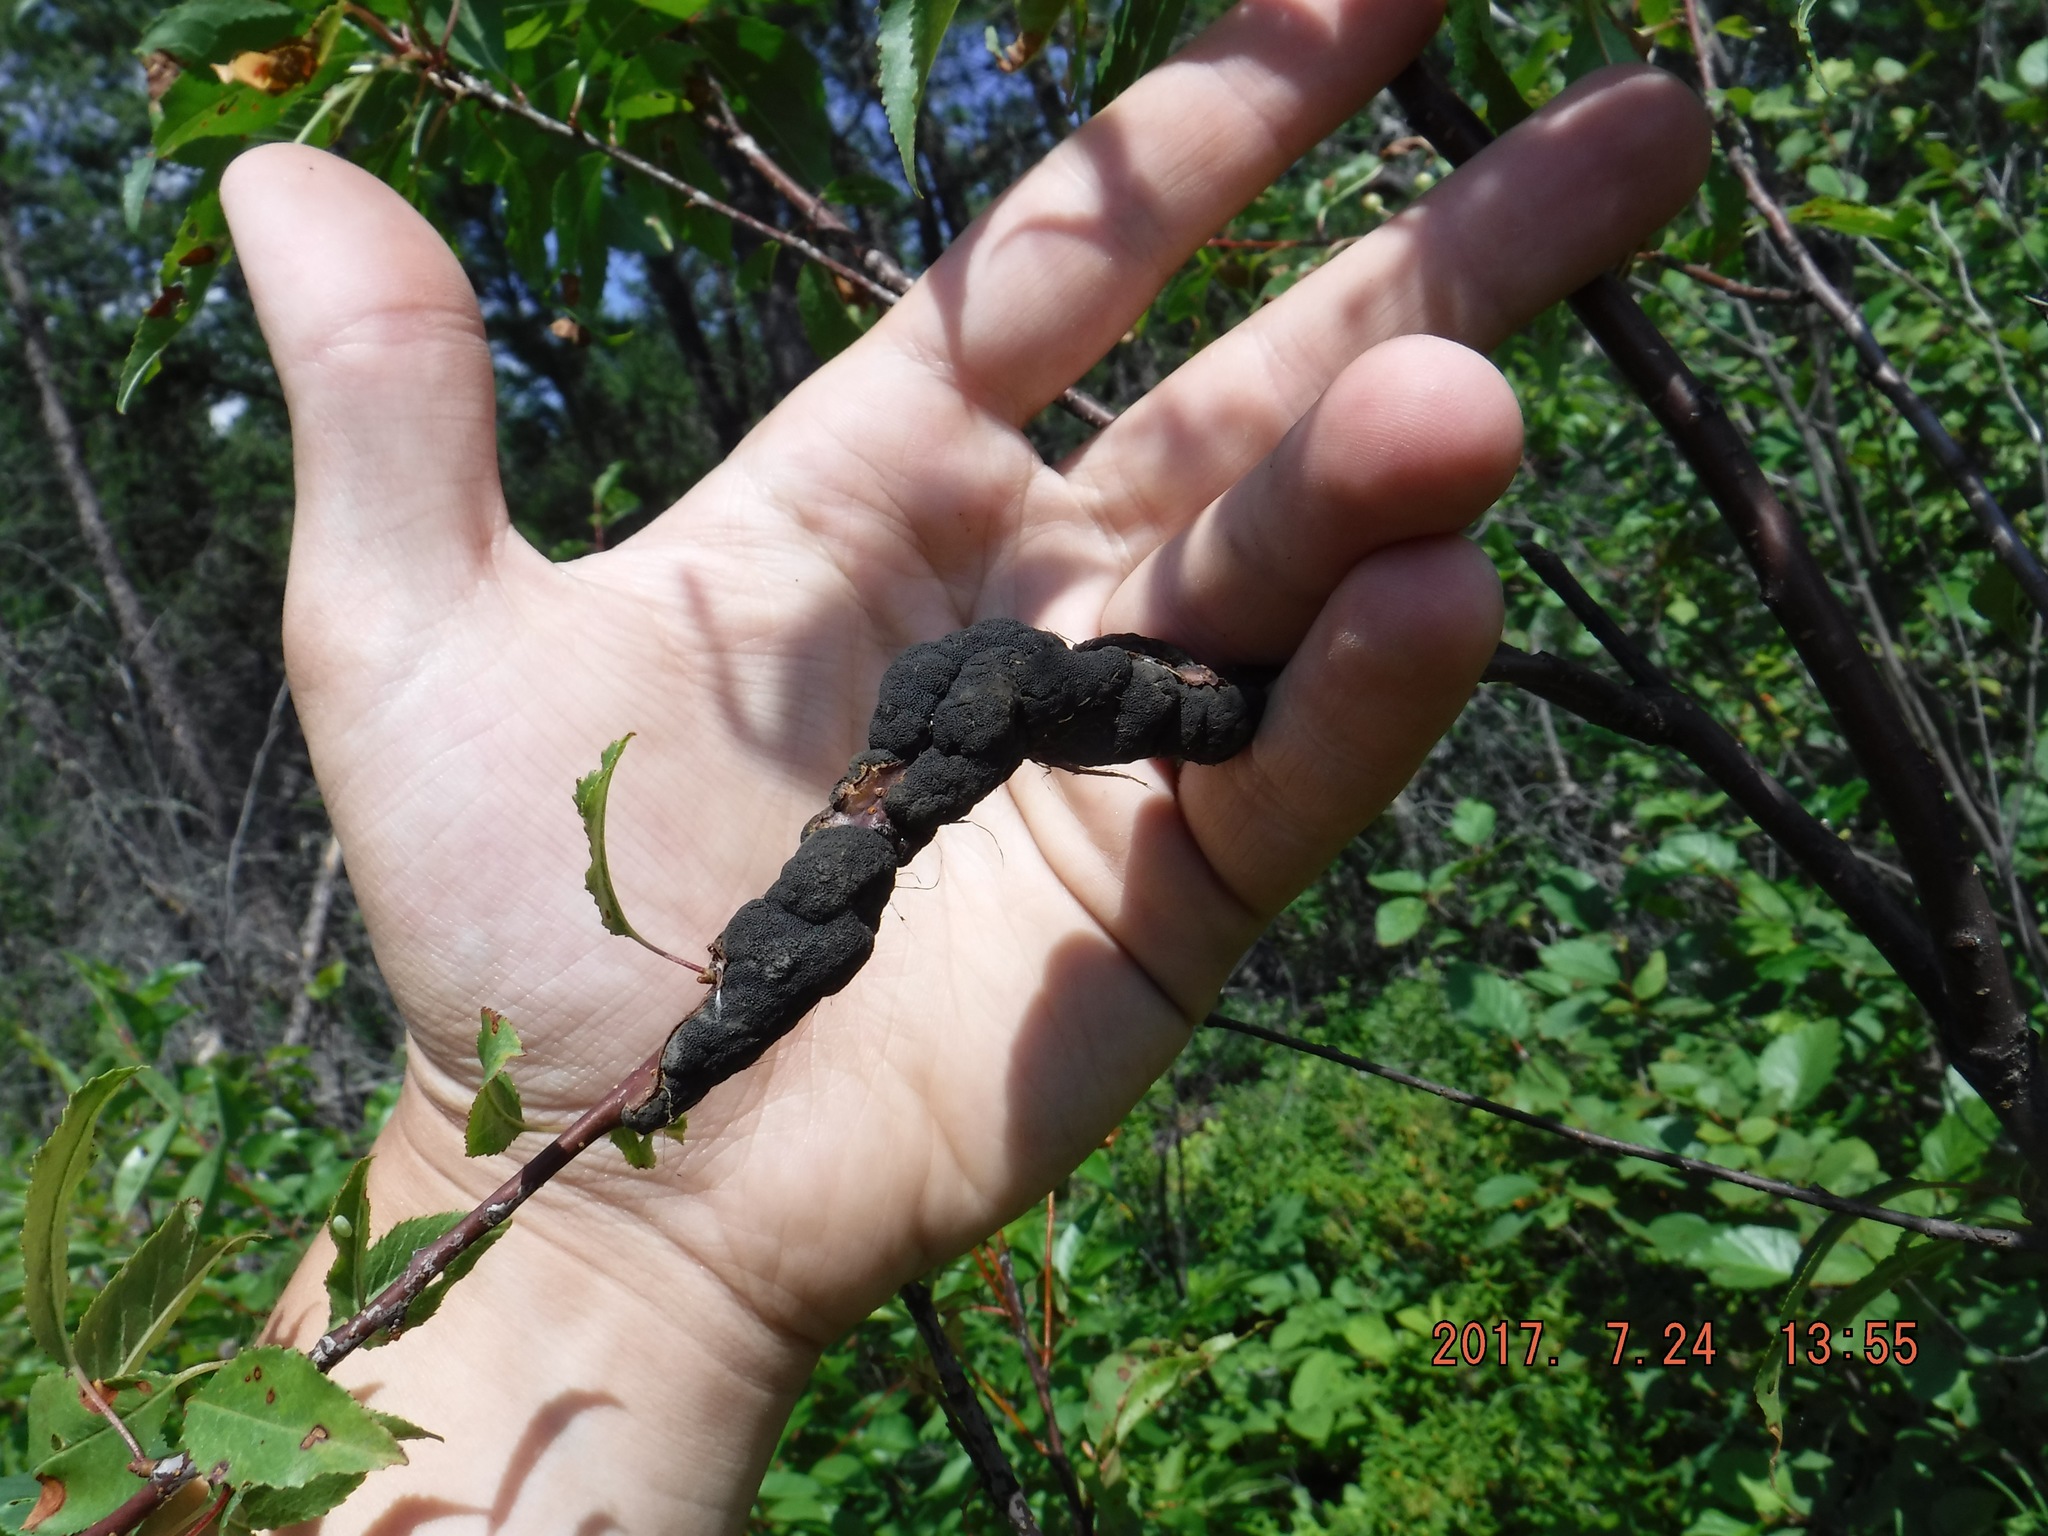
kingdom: Fungi
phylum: Ascomycota
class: Dothideomycetes
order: Venturiales
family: Venturiaceae
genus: Apiosporina
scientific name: Apiosporina morbosa
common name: Black knot
